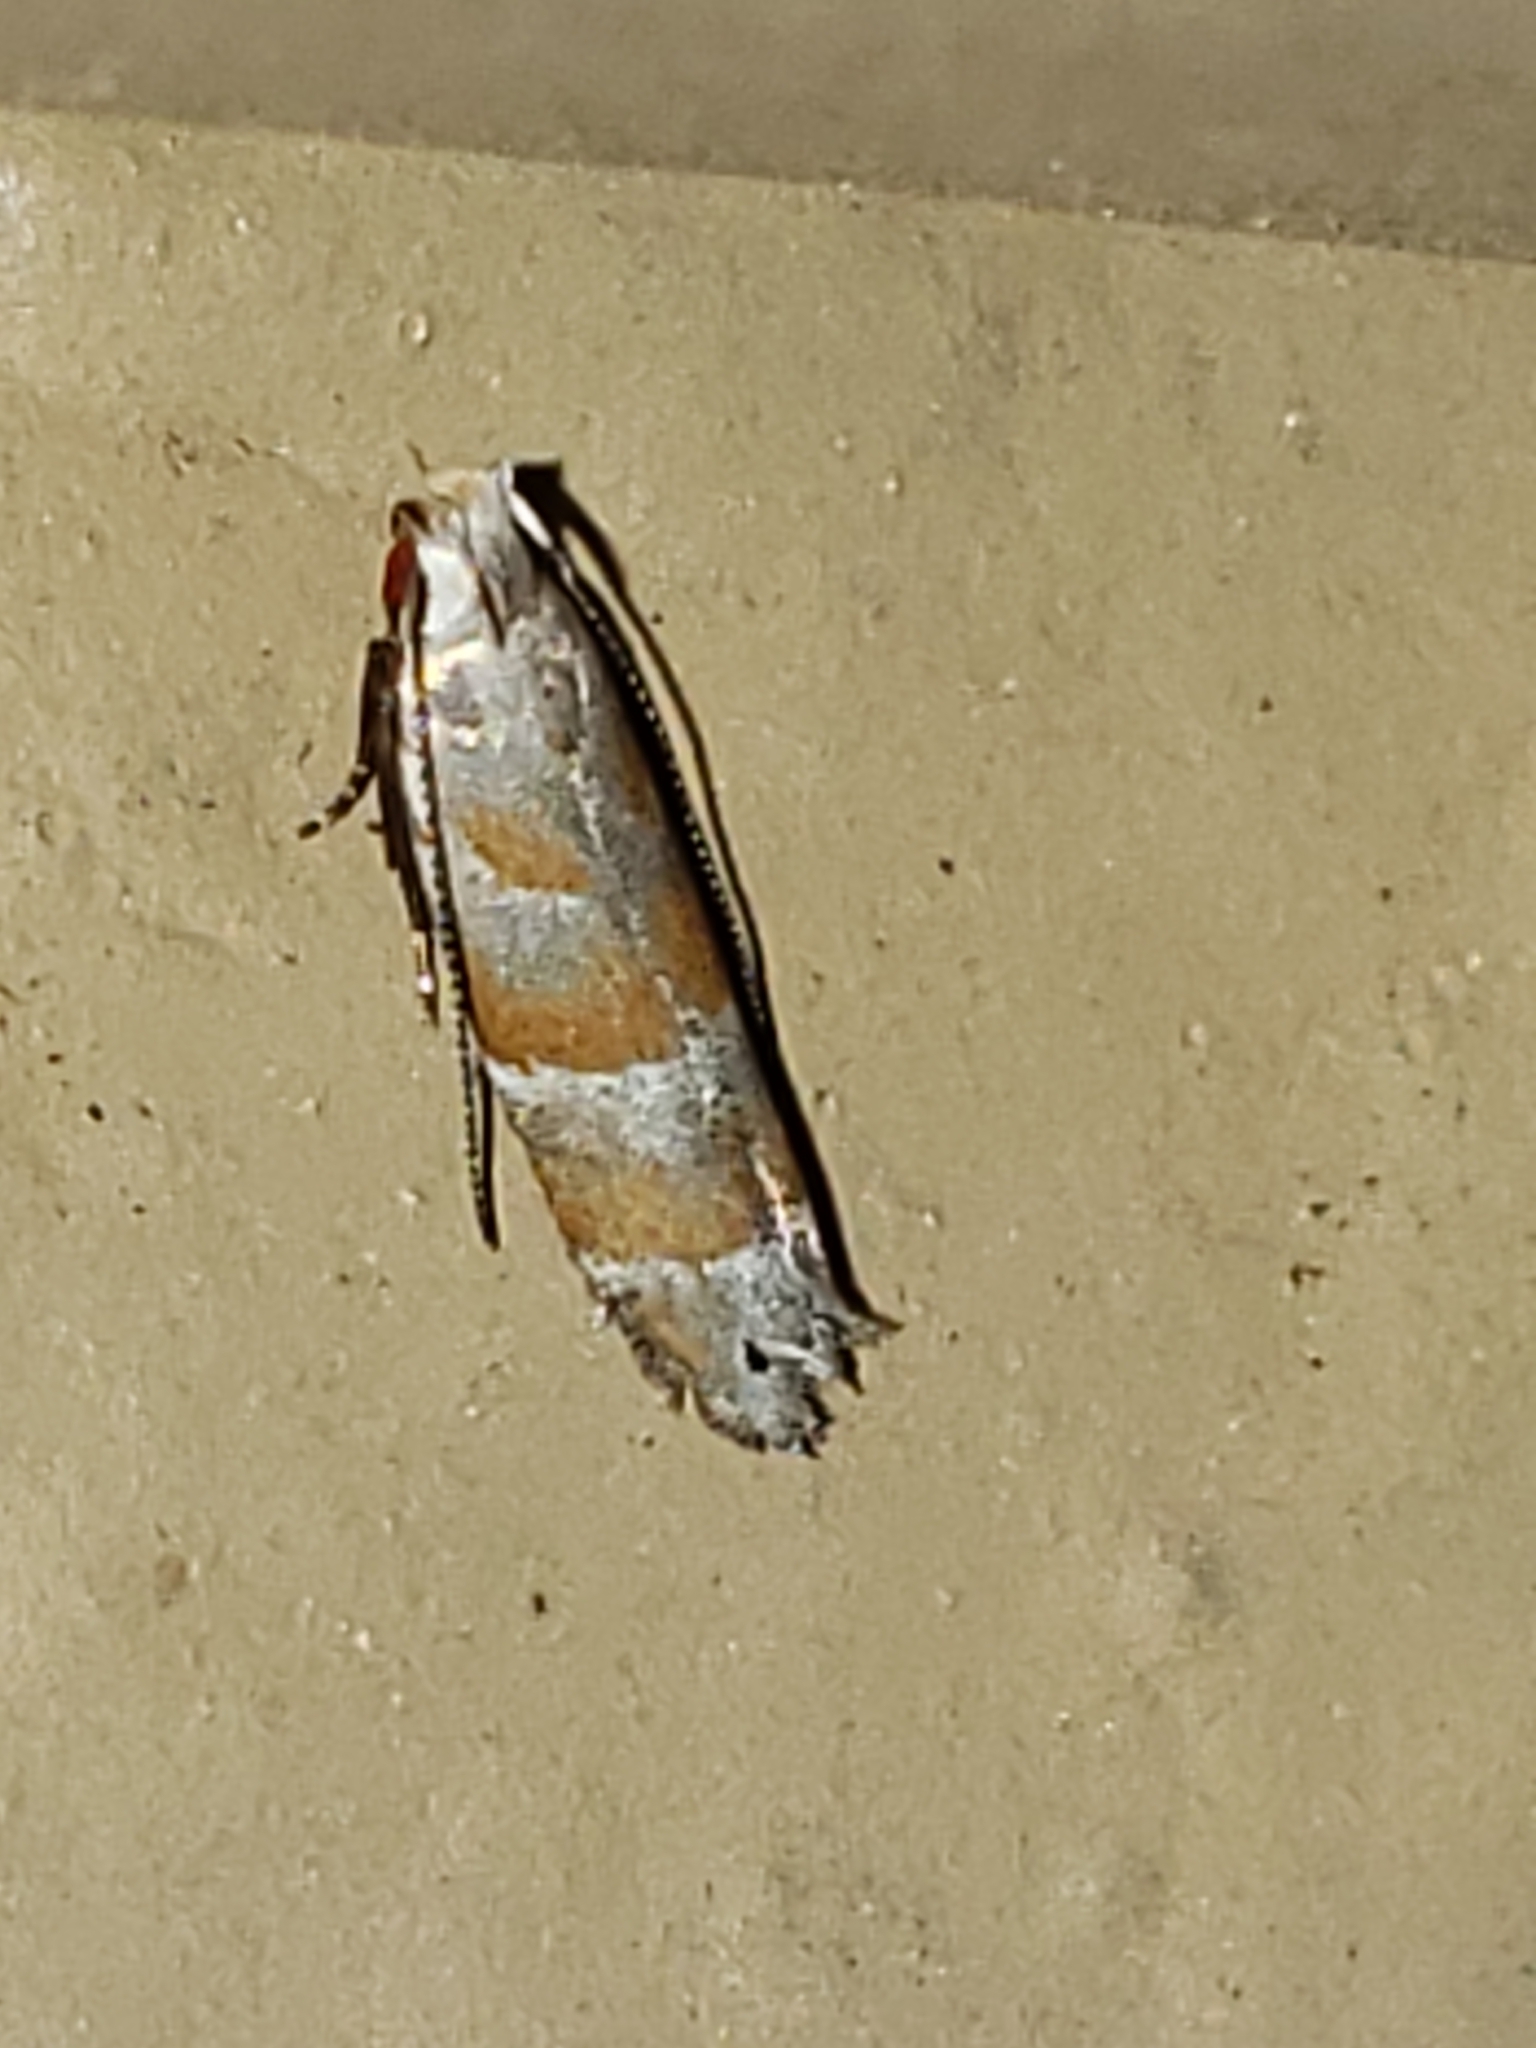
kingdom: Animalia
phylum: Arthropoda
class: Insecta
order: Lepidoptera
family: Gelechiidae
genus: Battaristis
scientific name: Battaristis vittella
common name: Orange stripe-backed moth
